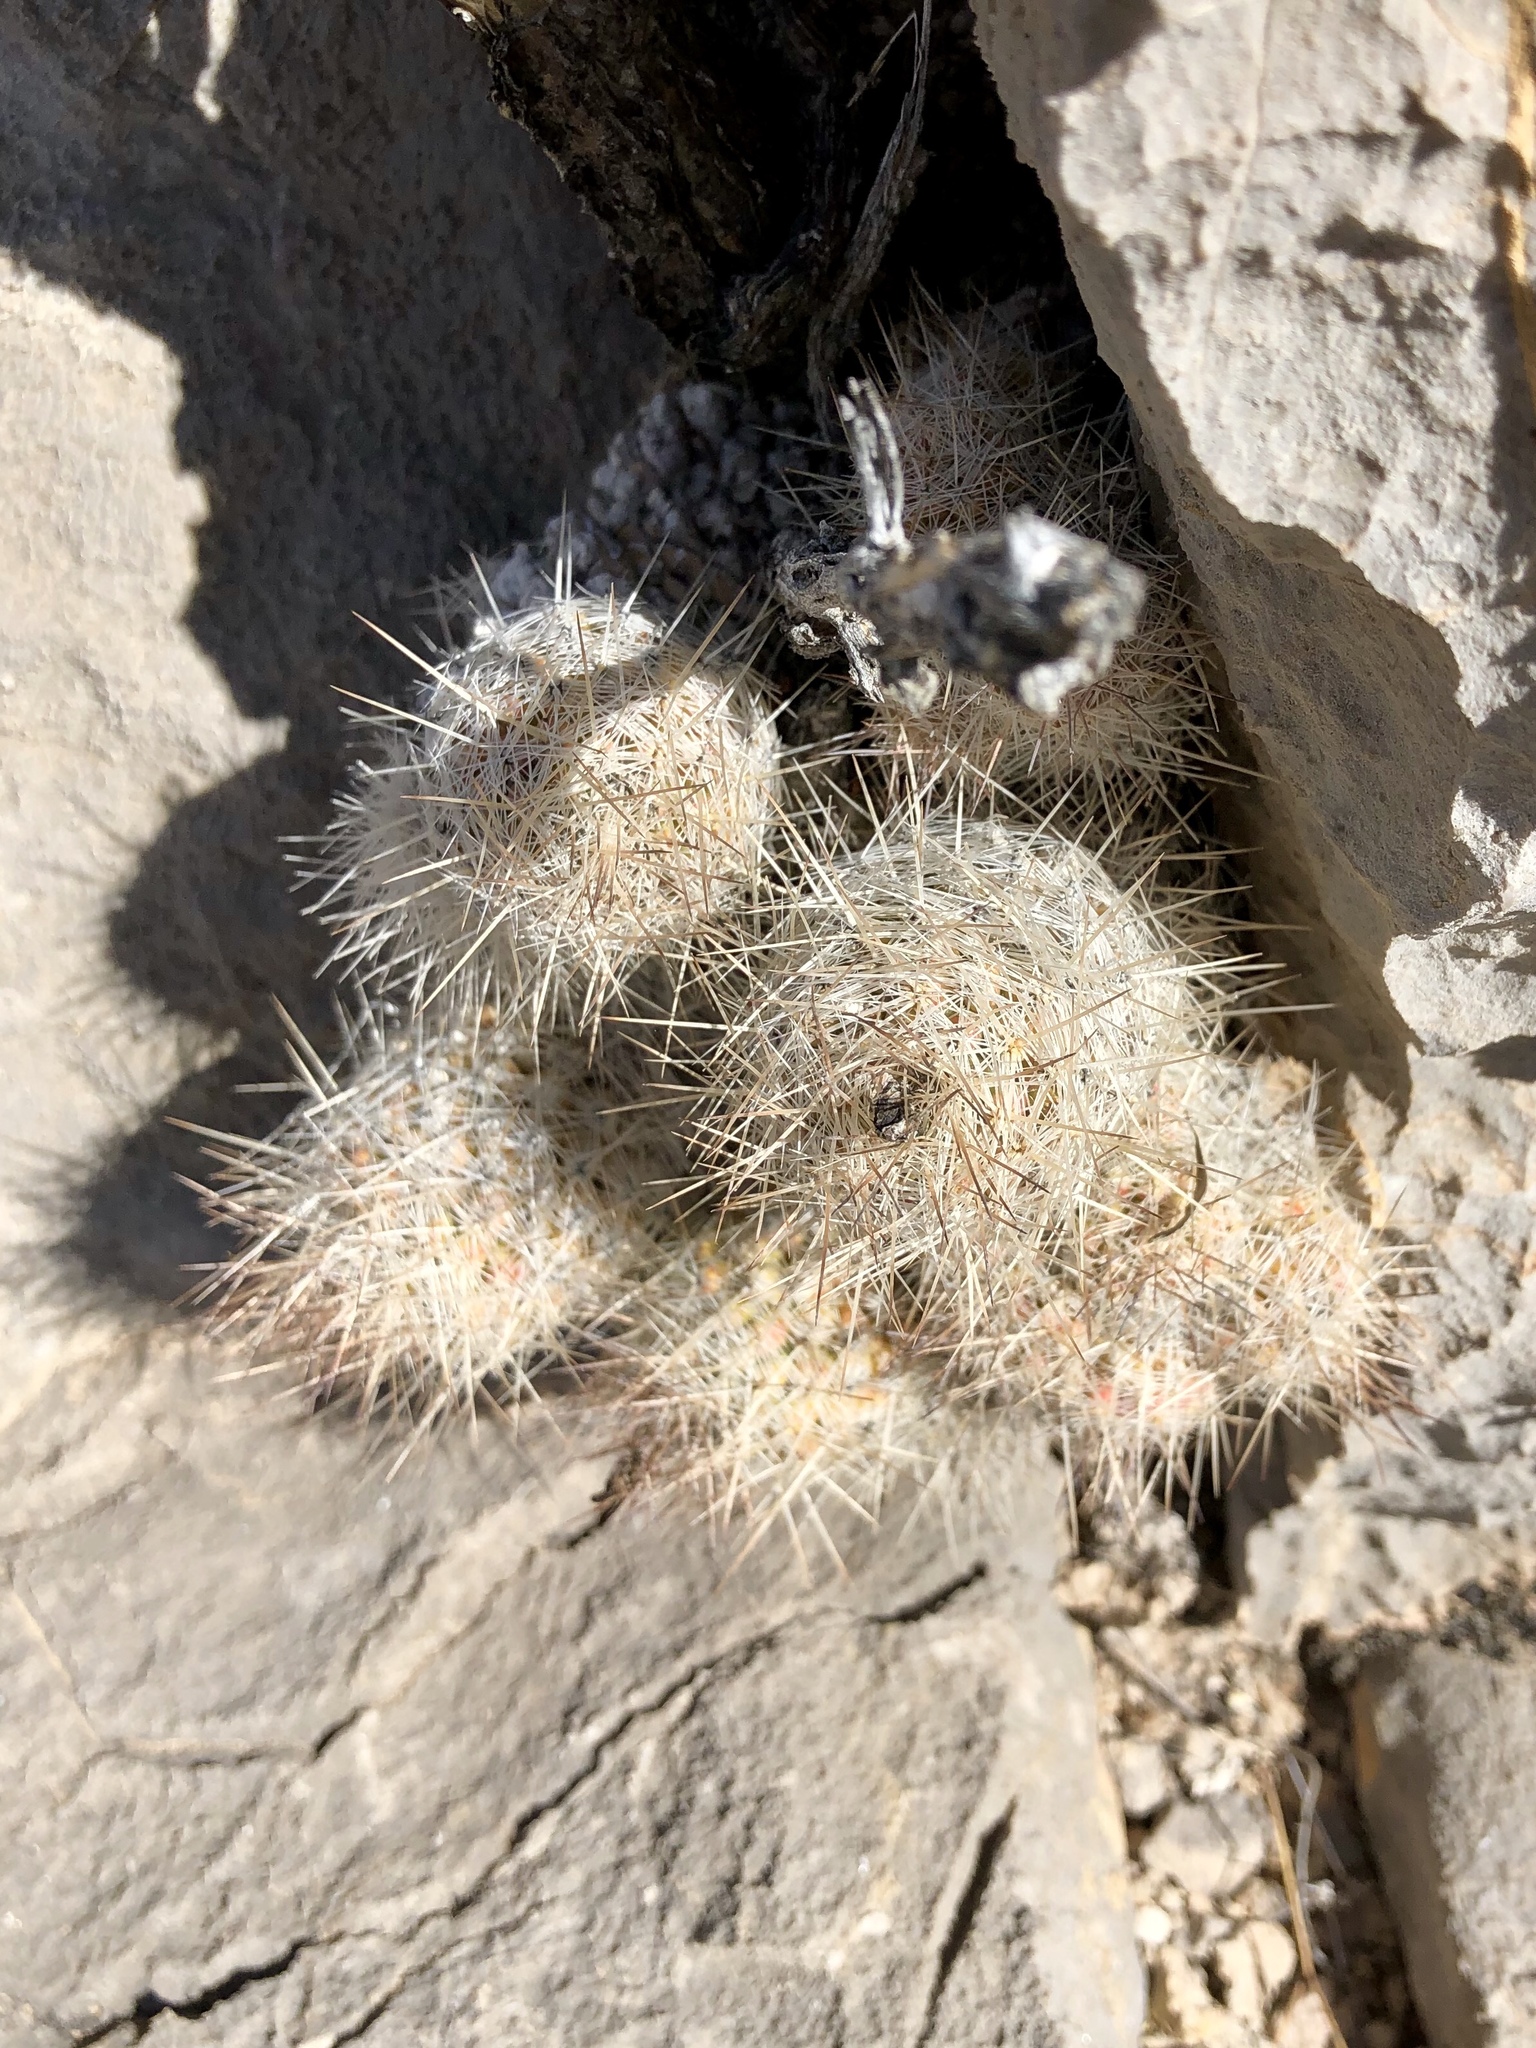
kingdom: Plantae
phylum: Tracheophyta
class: Magnoliopsida
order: Caryophyllales
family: Cactaceae
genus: Pelecyphora
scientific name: Pelecyphora tuberculosa
